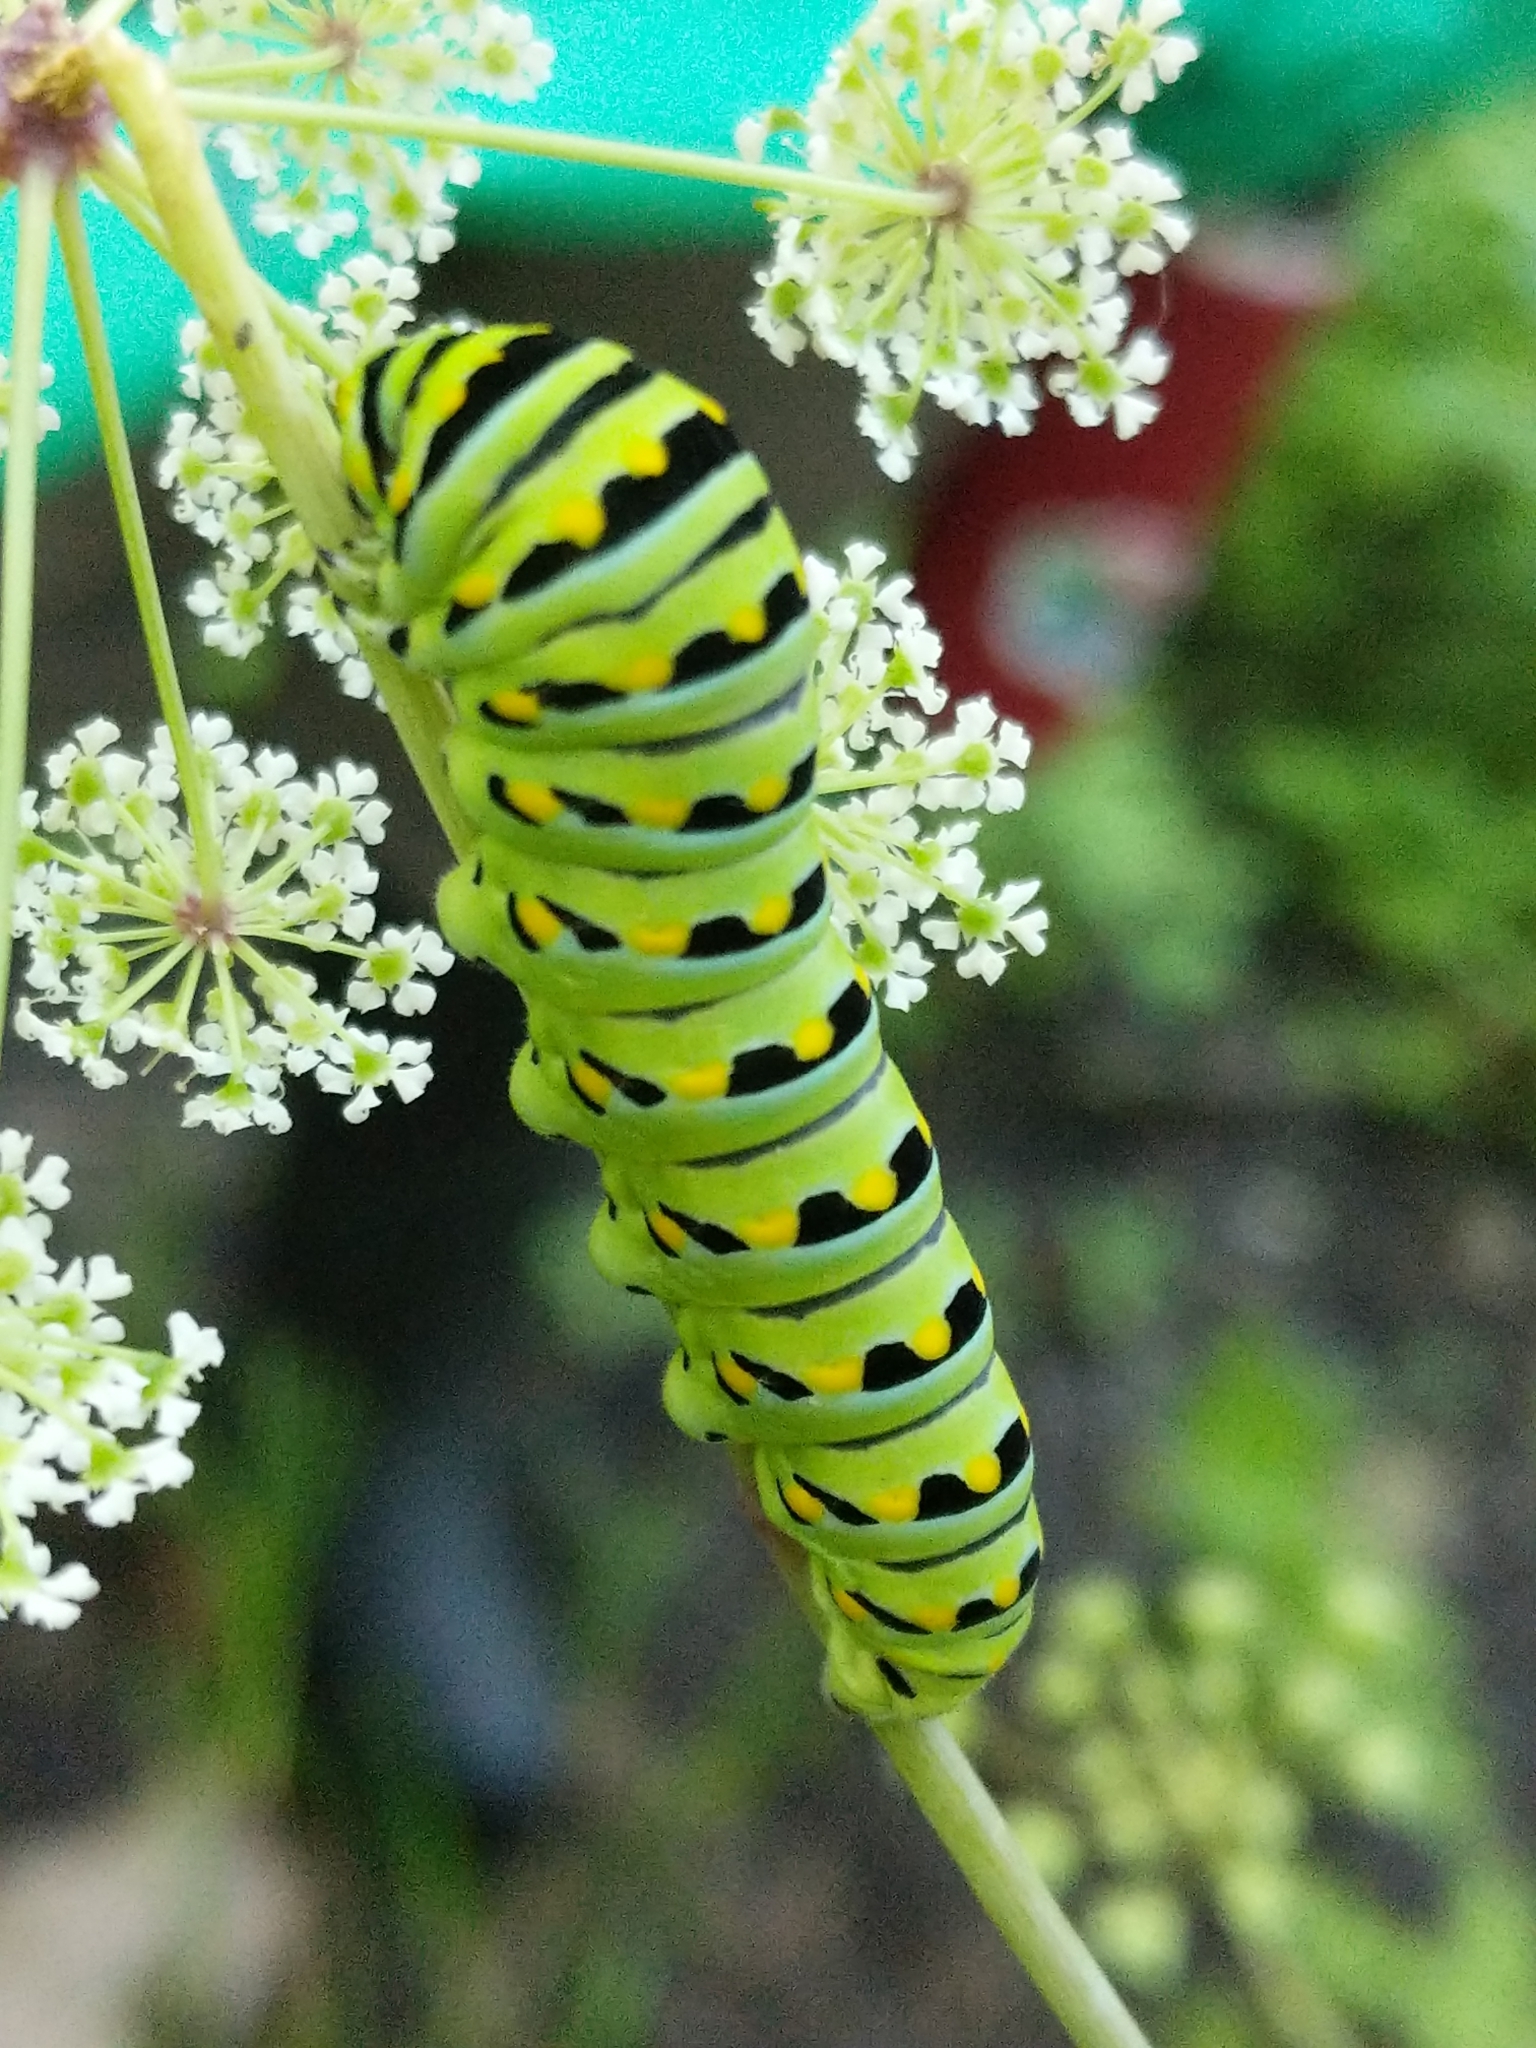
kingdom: Animalia
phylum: Arthropoda
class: Insecta
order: Lepidoptera
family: Papilionidae
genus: Papilio
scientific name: Papilio polyxenes
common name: Black swallowtail
